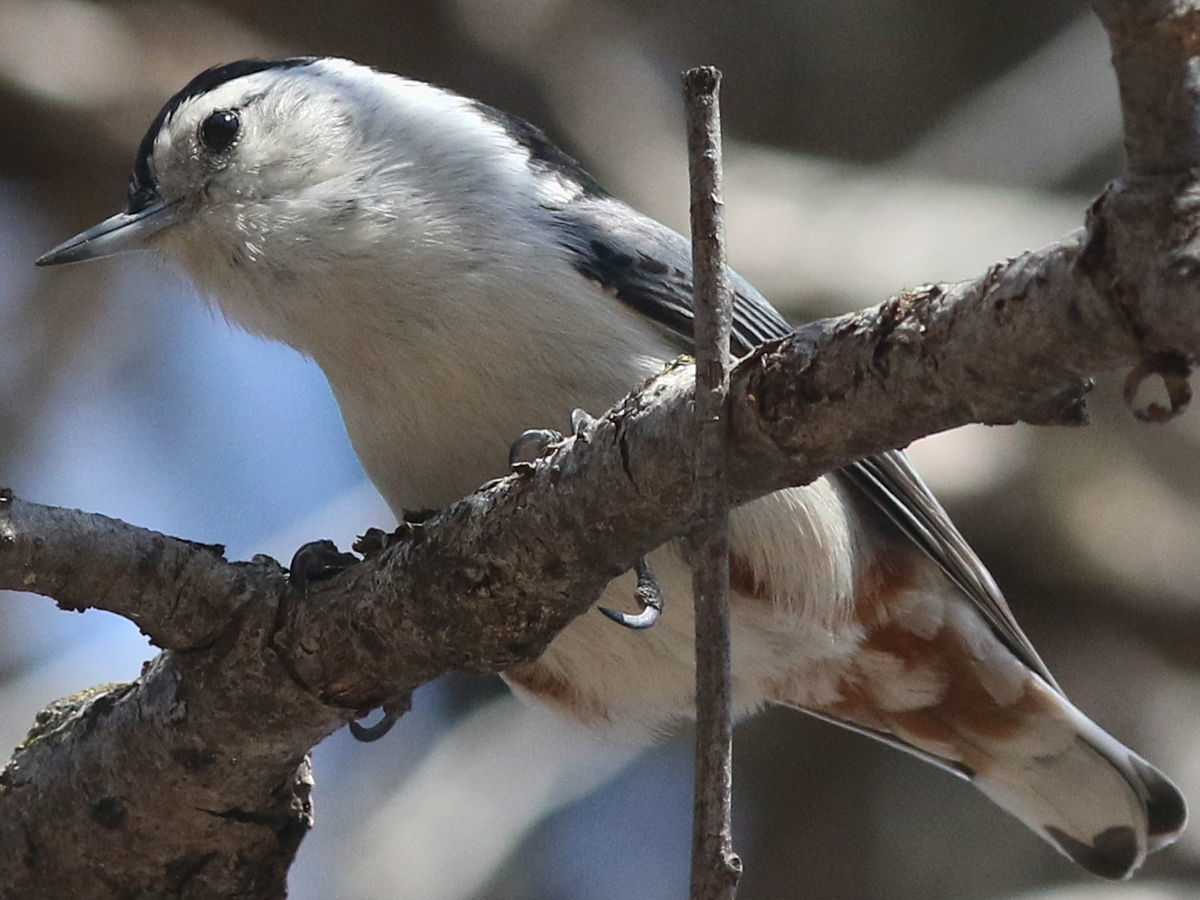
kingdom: Animalia
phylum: Chordata
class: Aves
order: Passeriformes
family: Sittidae
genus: Sitta
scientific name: Sitta carolinensis
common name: White-breasted nuthatch
